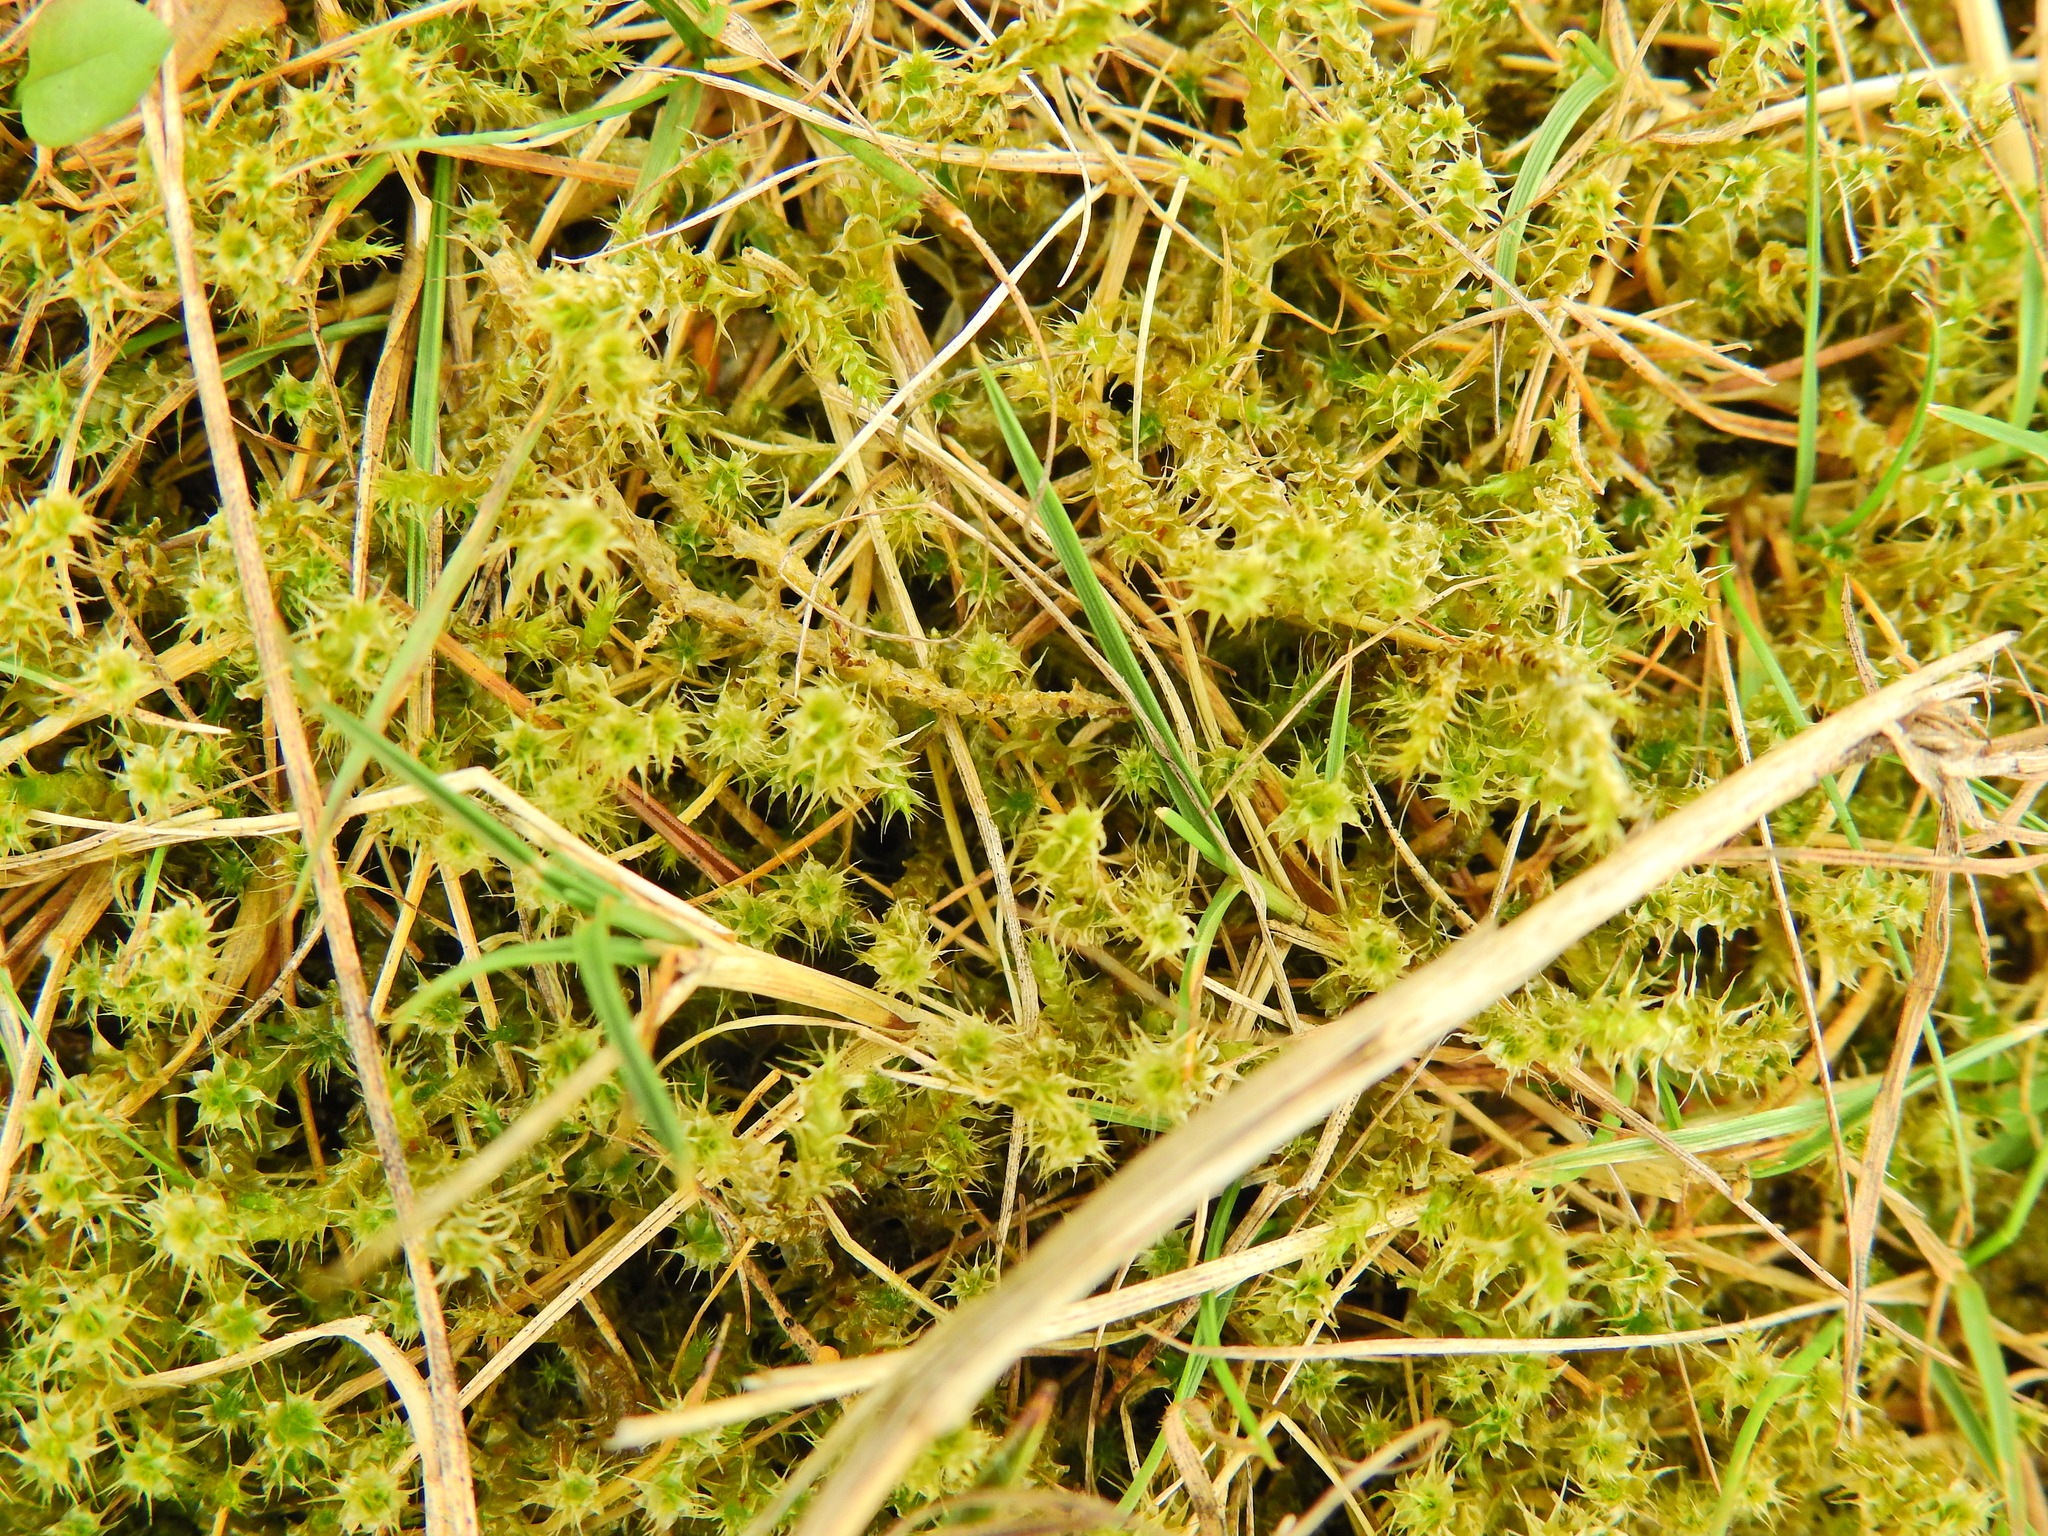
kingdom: Plantae
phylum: Bryophyta
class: Bryopsida
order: Hypnales
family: Hylocomiaceae
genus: Rhytidiadelphus
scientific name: Rhytidiadelphus squarrosus
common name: Springy turf-moss
